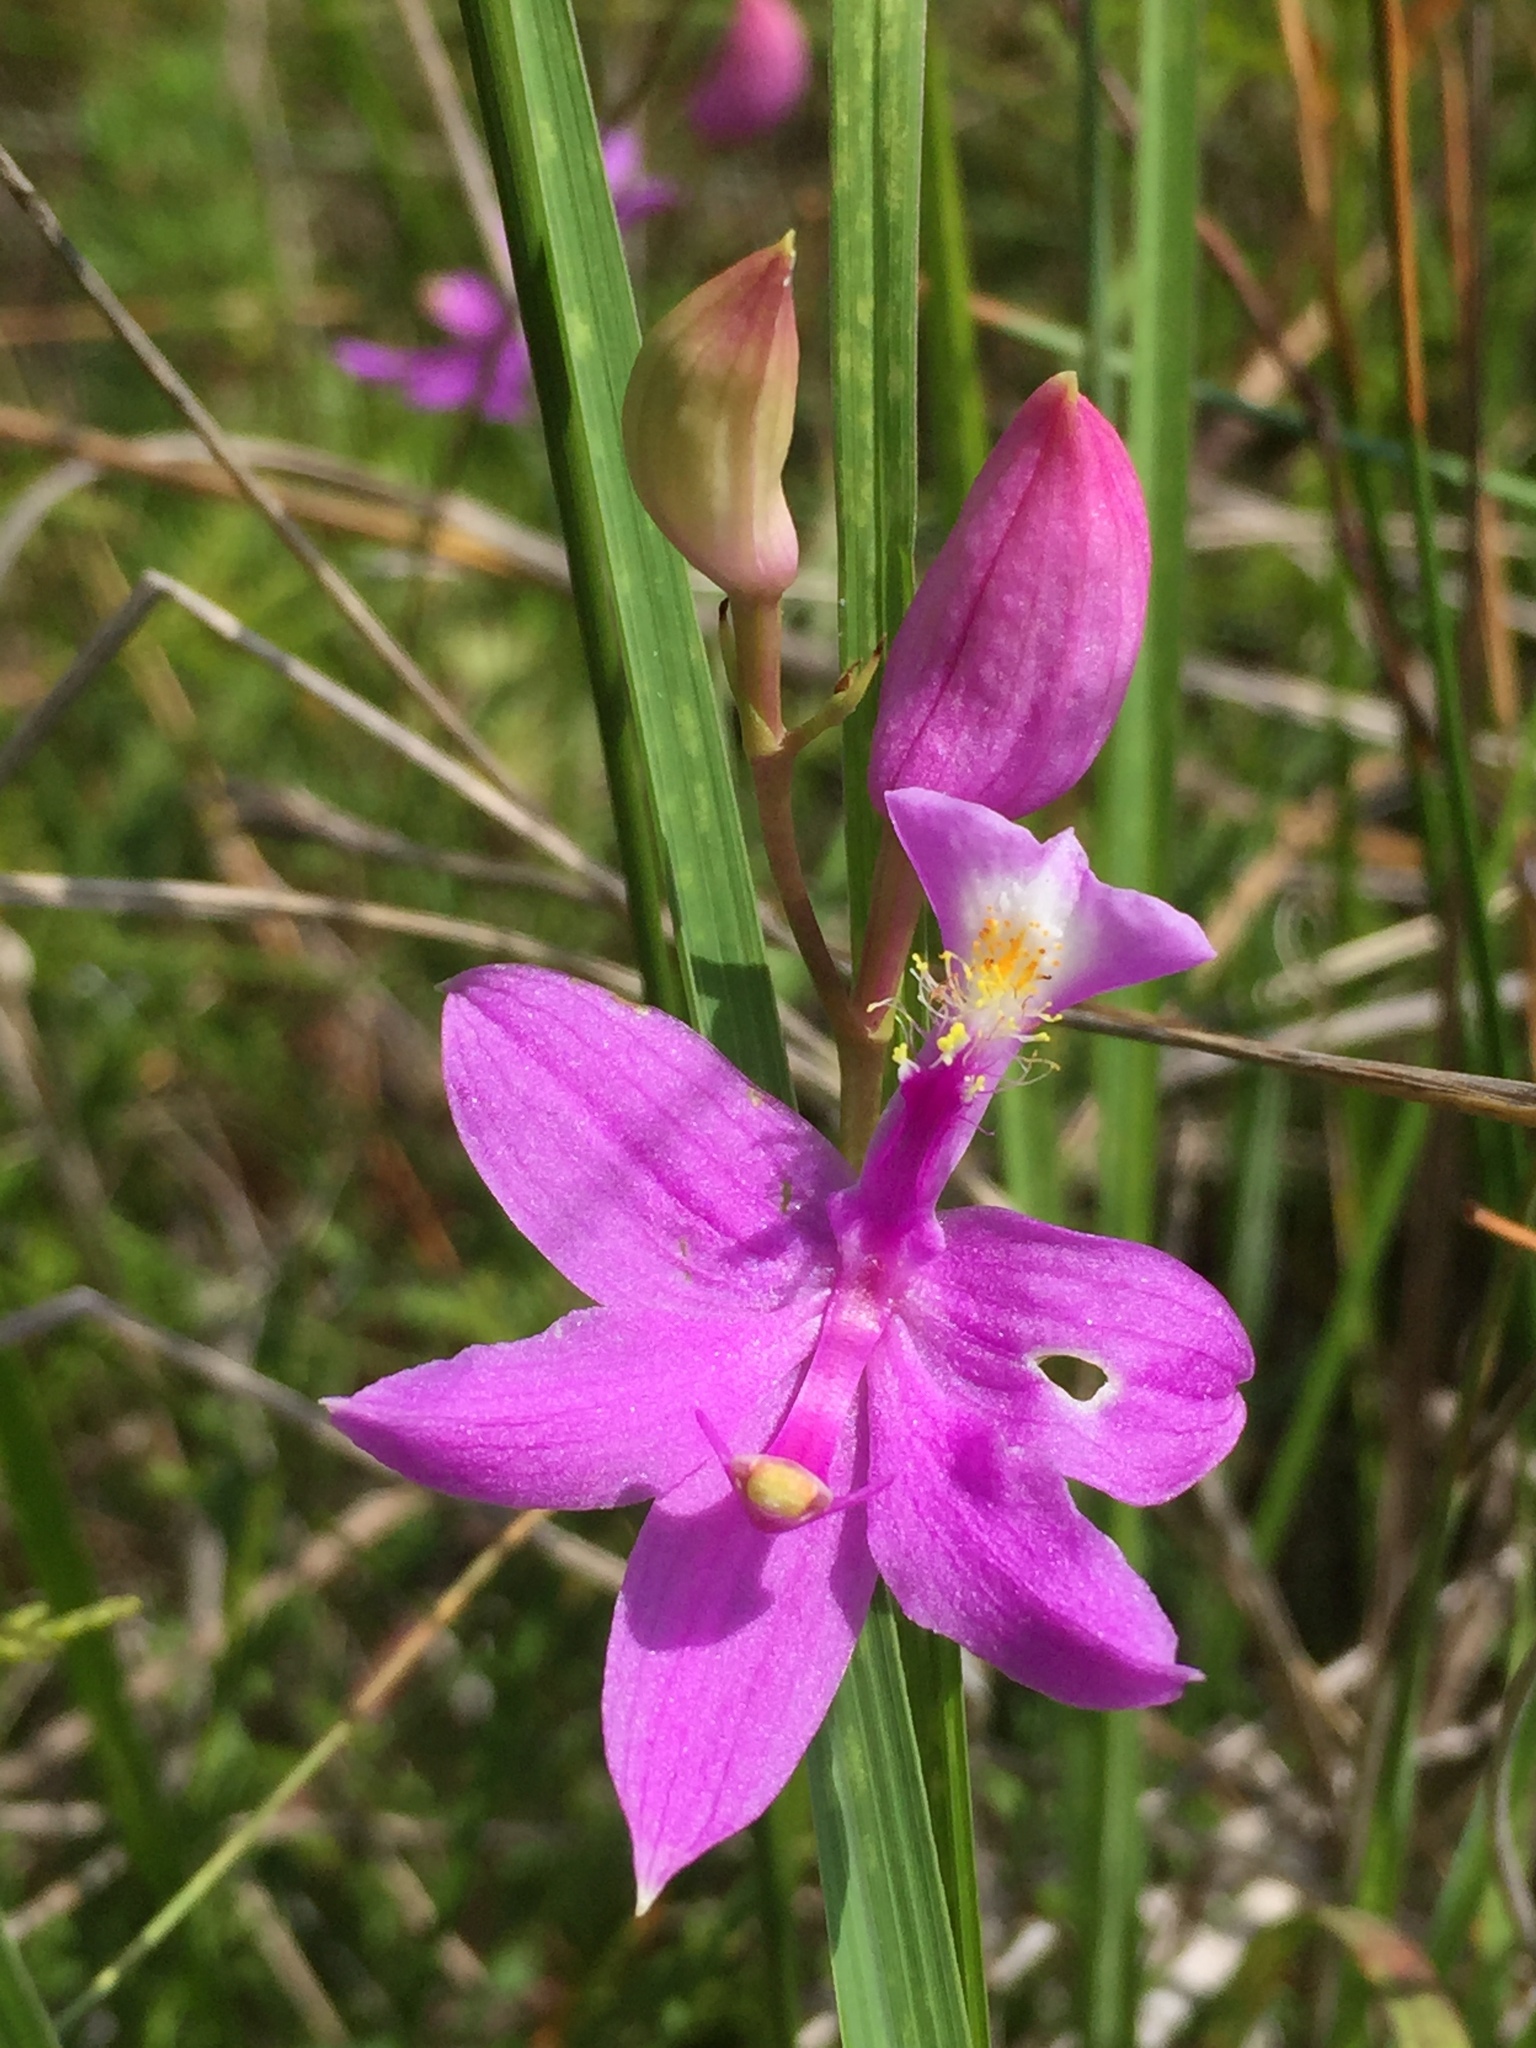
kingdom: Plantae
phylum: Tracheophyta
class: Liliopsida
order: Asparagales
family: Orchidaceae
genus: Calopogon
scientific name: Calopogon tuberosus
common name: Grass-pink
